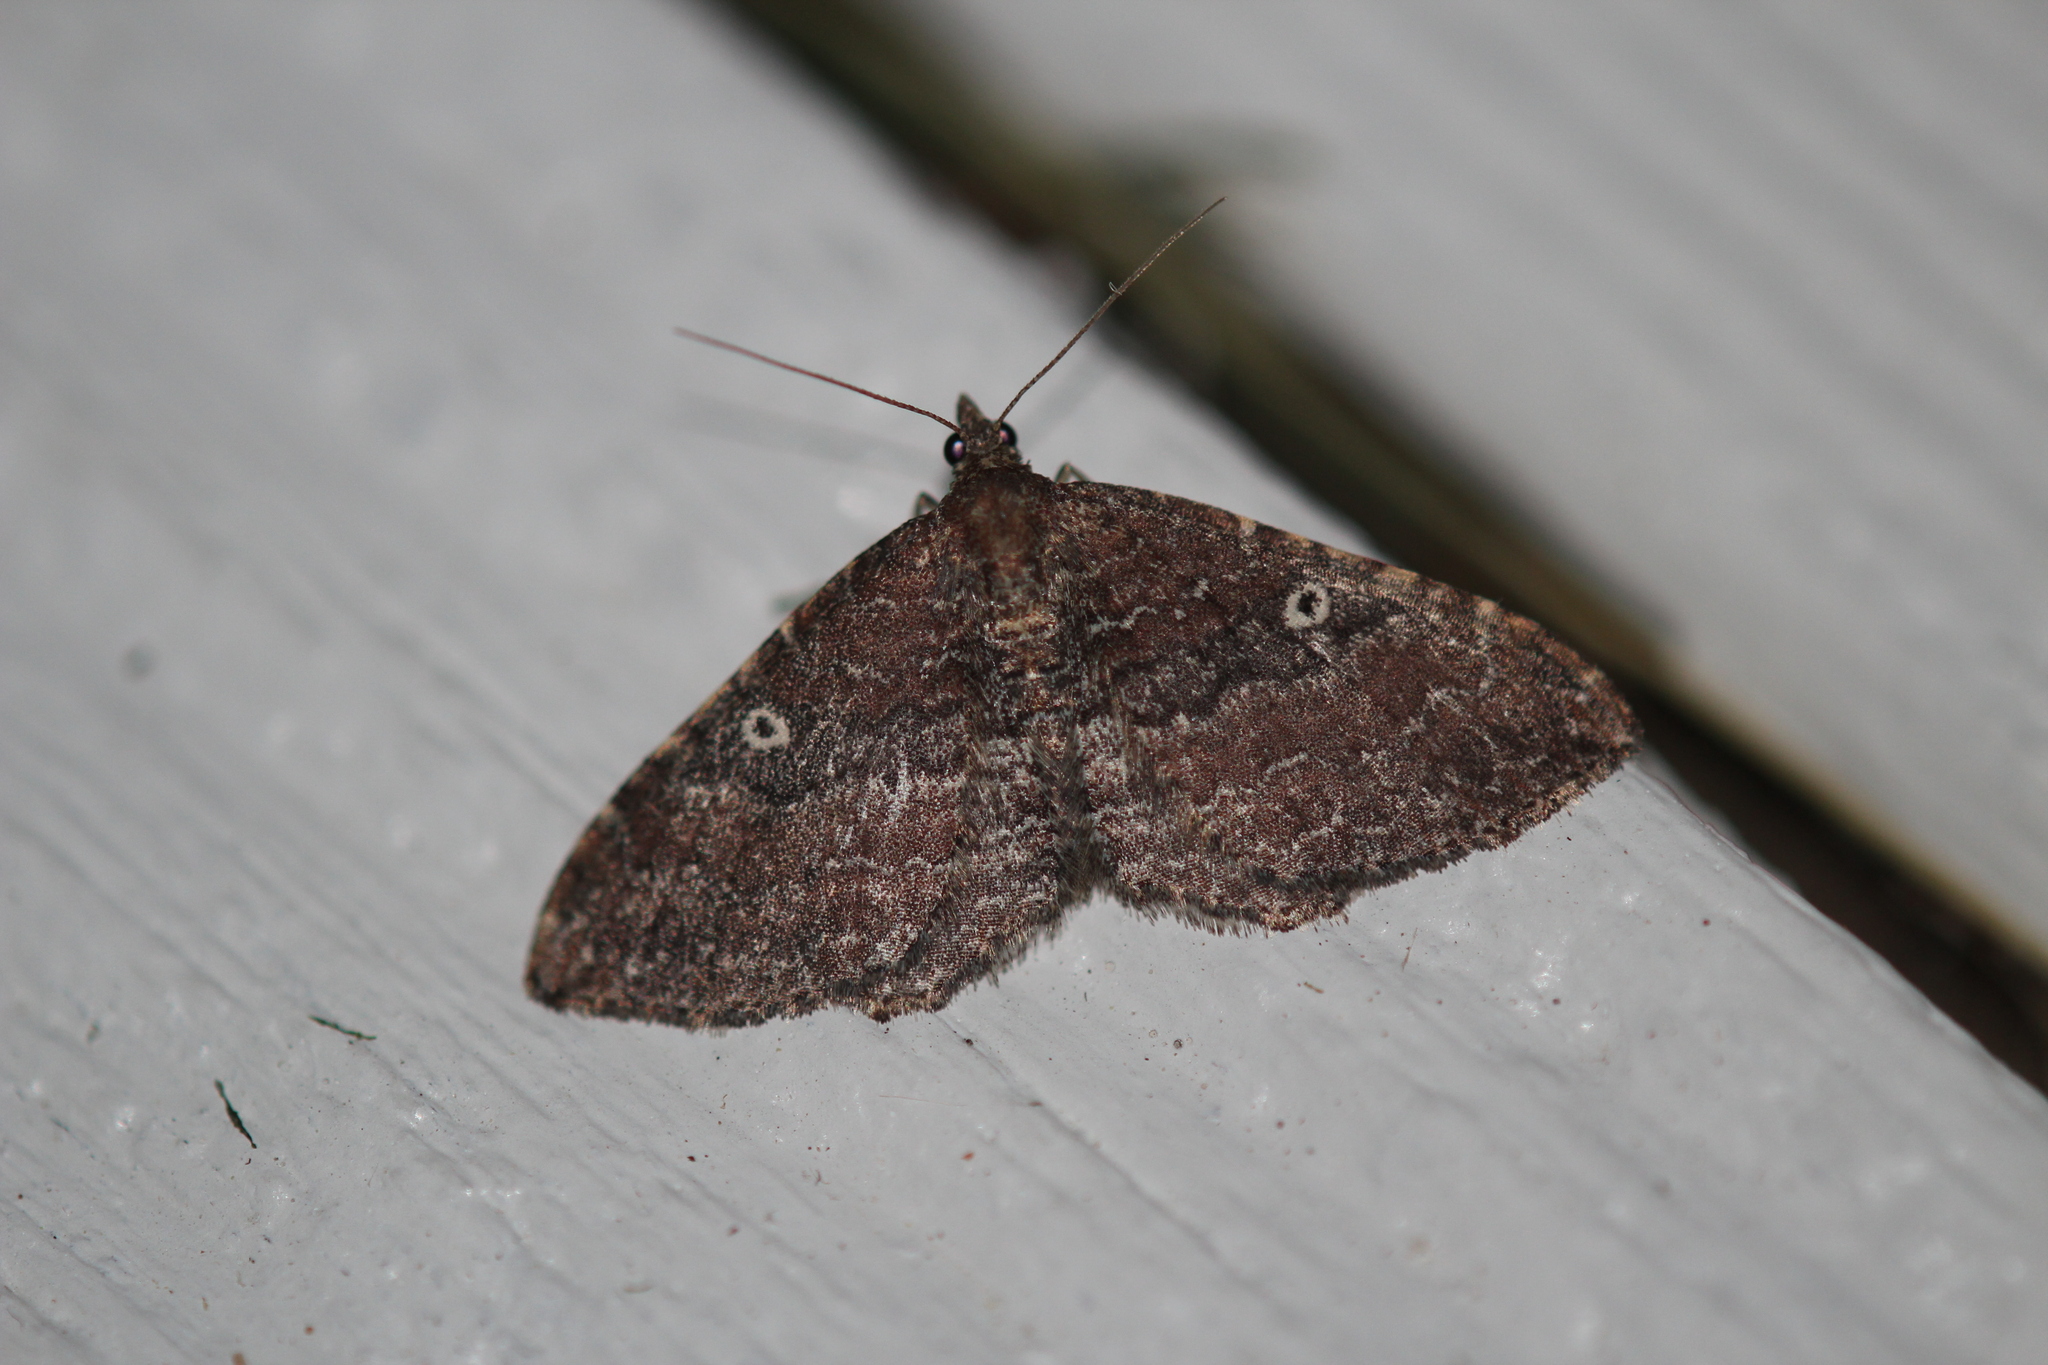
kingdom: Animalia
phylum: Arthropoda
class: Insecta
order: Lepidoptera
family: Geometridae
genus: Orthonama
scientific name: Orthonama obstipata
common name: The gem
